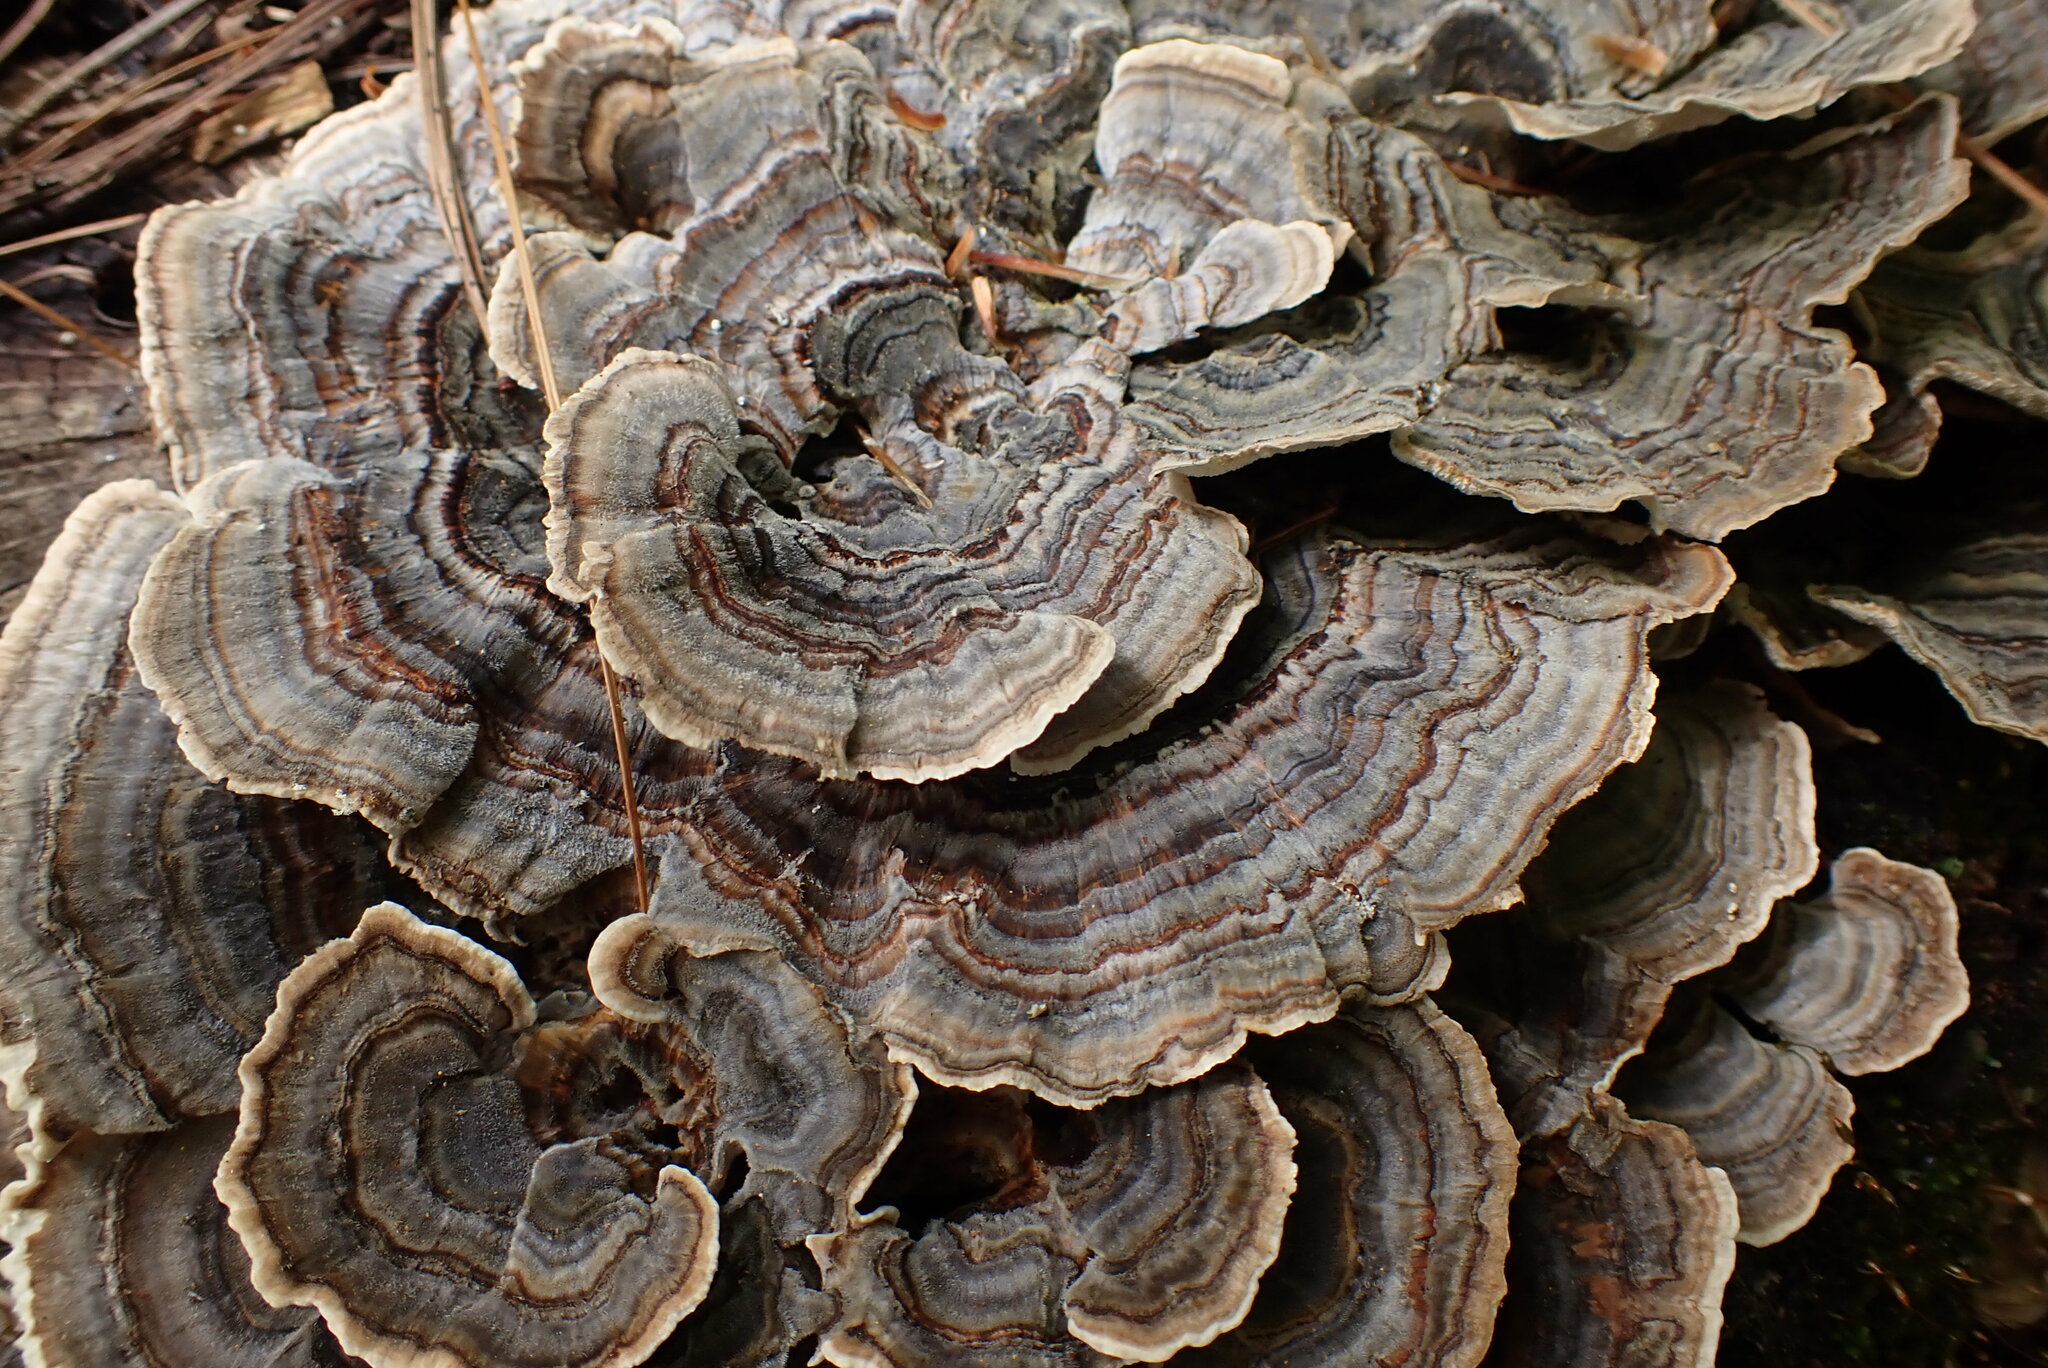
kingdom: Fungi
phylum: Basidiomycota
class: Agaricomycetes
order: Polyporales
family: Polyporaceae
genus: Trametes
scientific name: Trametes versicolor
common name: Turkeytail
